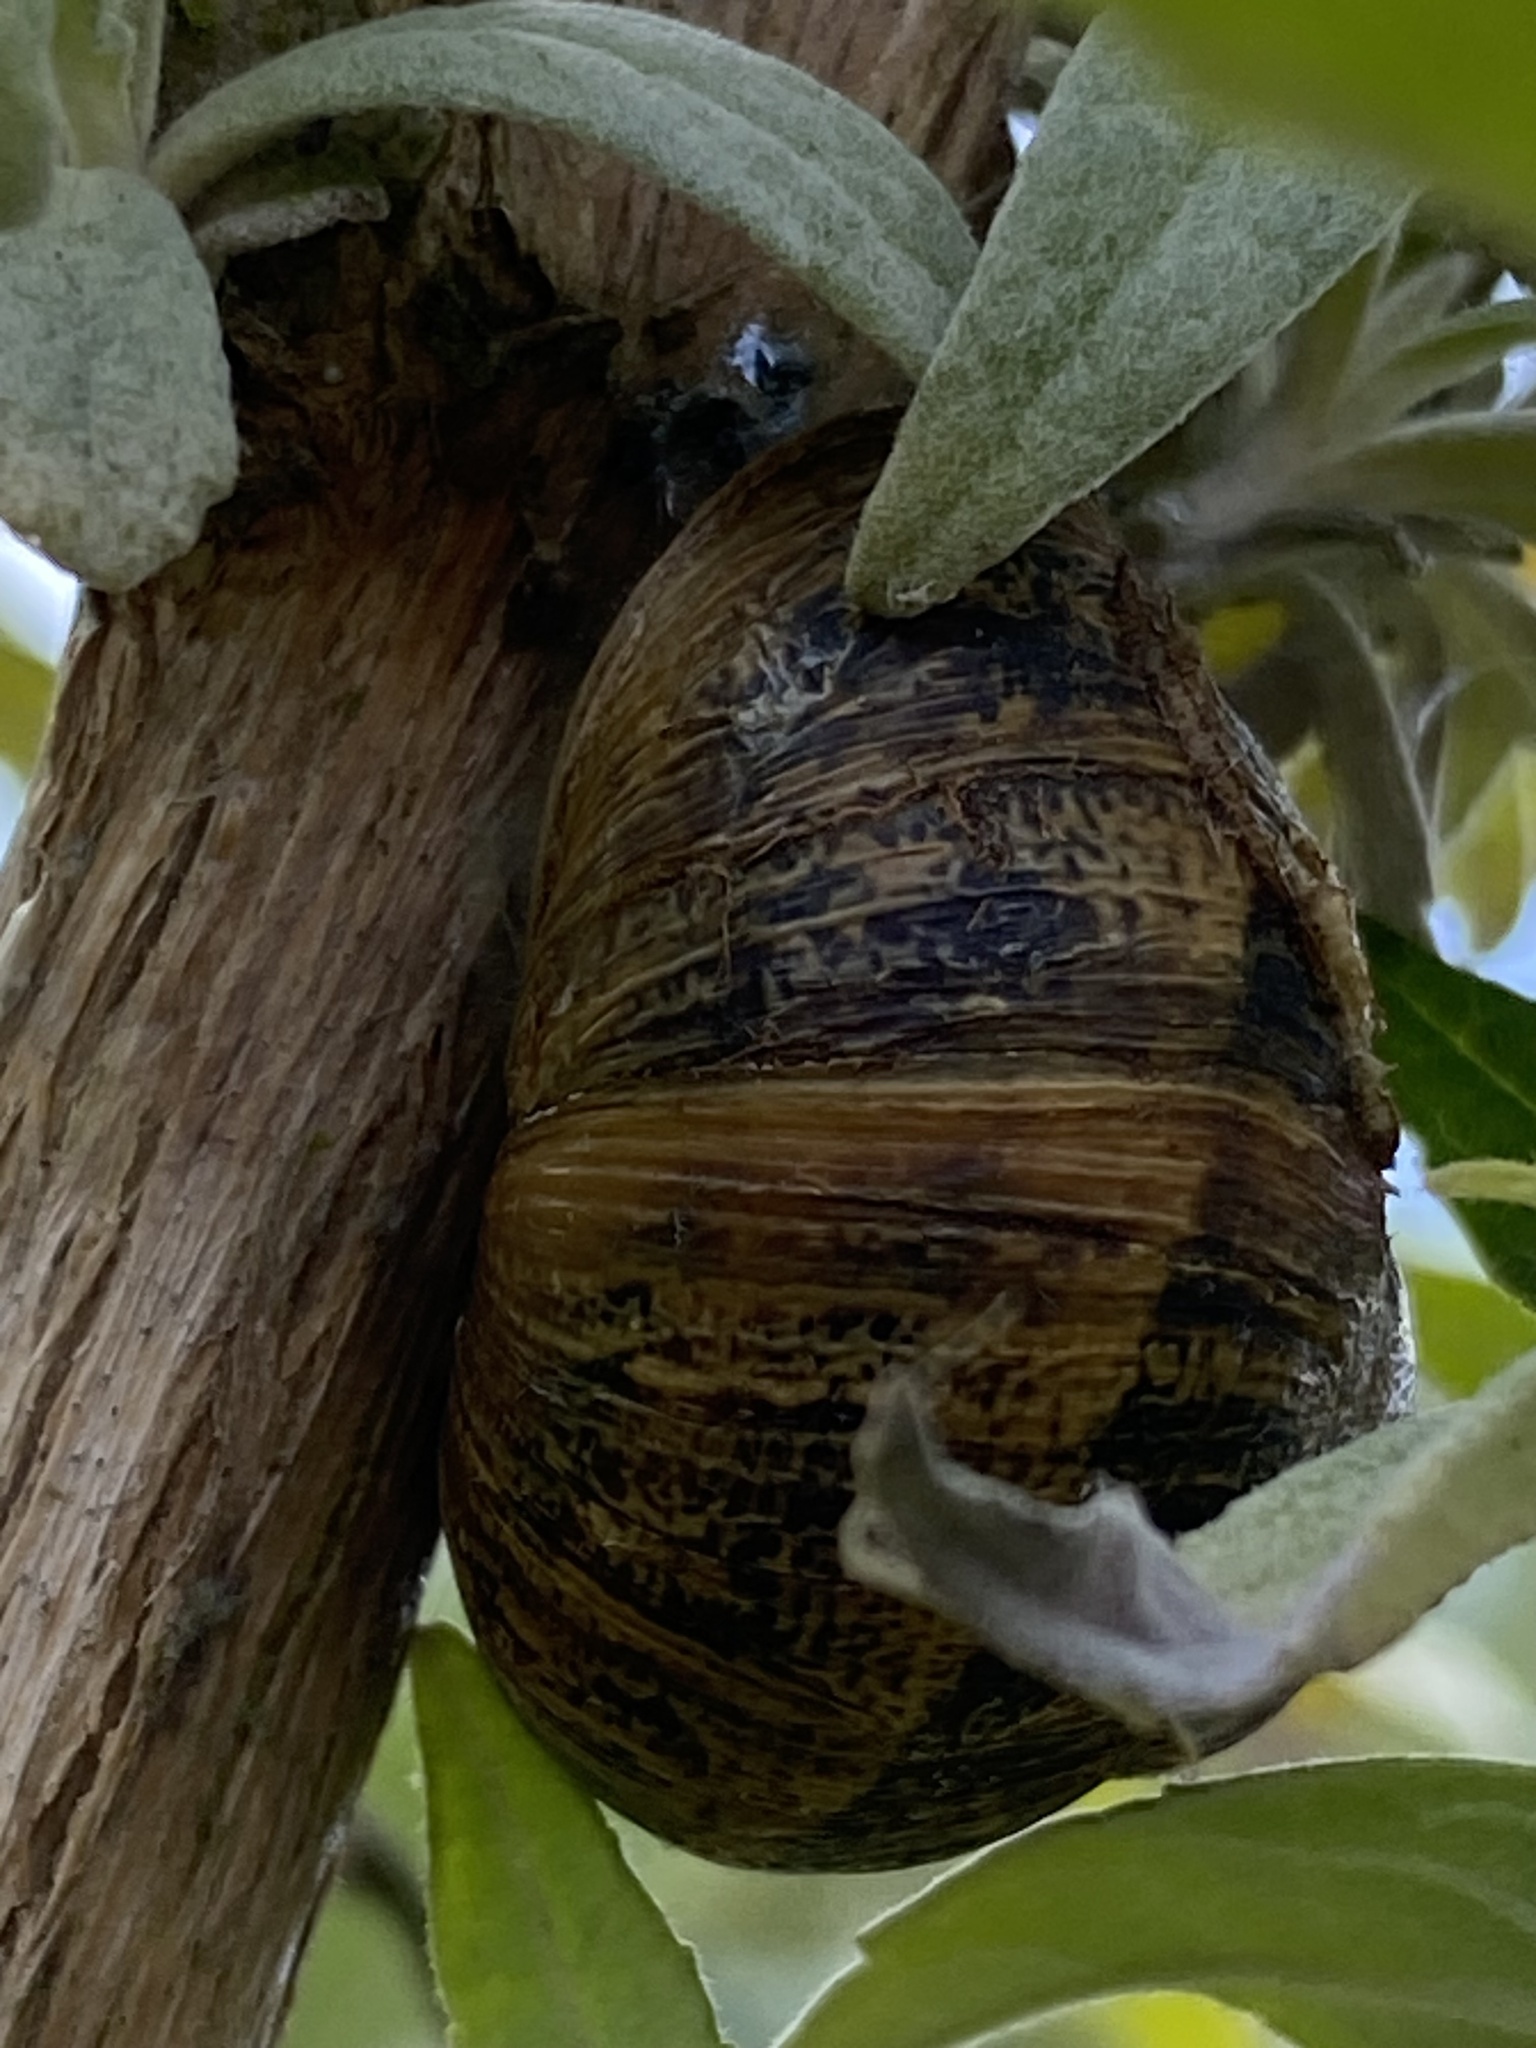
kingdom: Animalia
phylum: Mollusca
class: Gastropoda
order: Stylommatophora
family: Helicidae
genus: Cornu
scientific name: Cornu aspersum
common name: Brown garden snail
